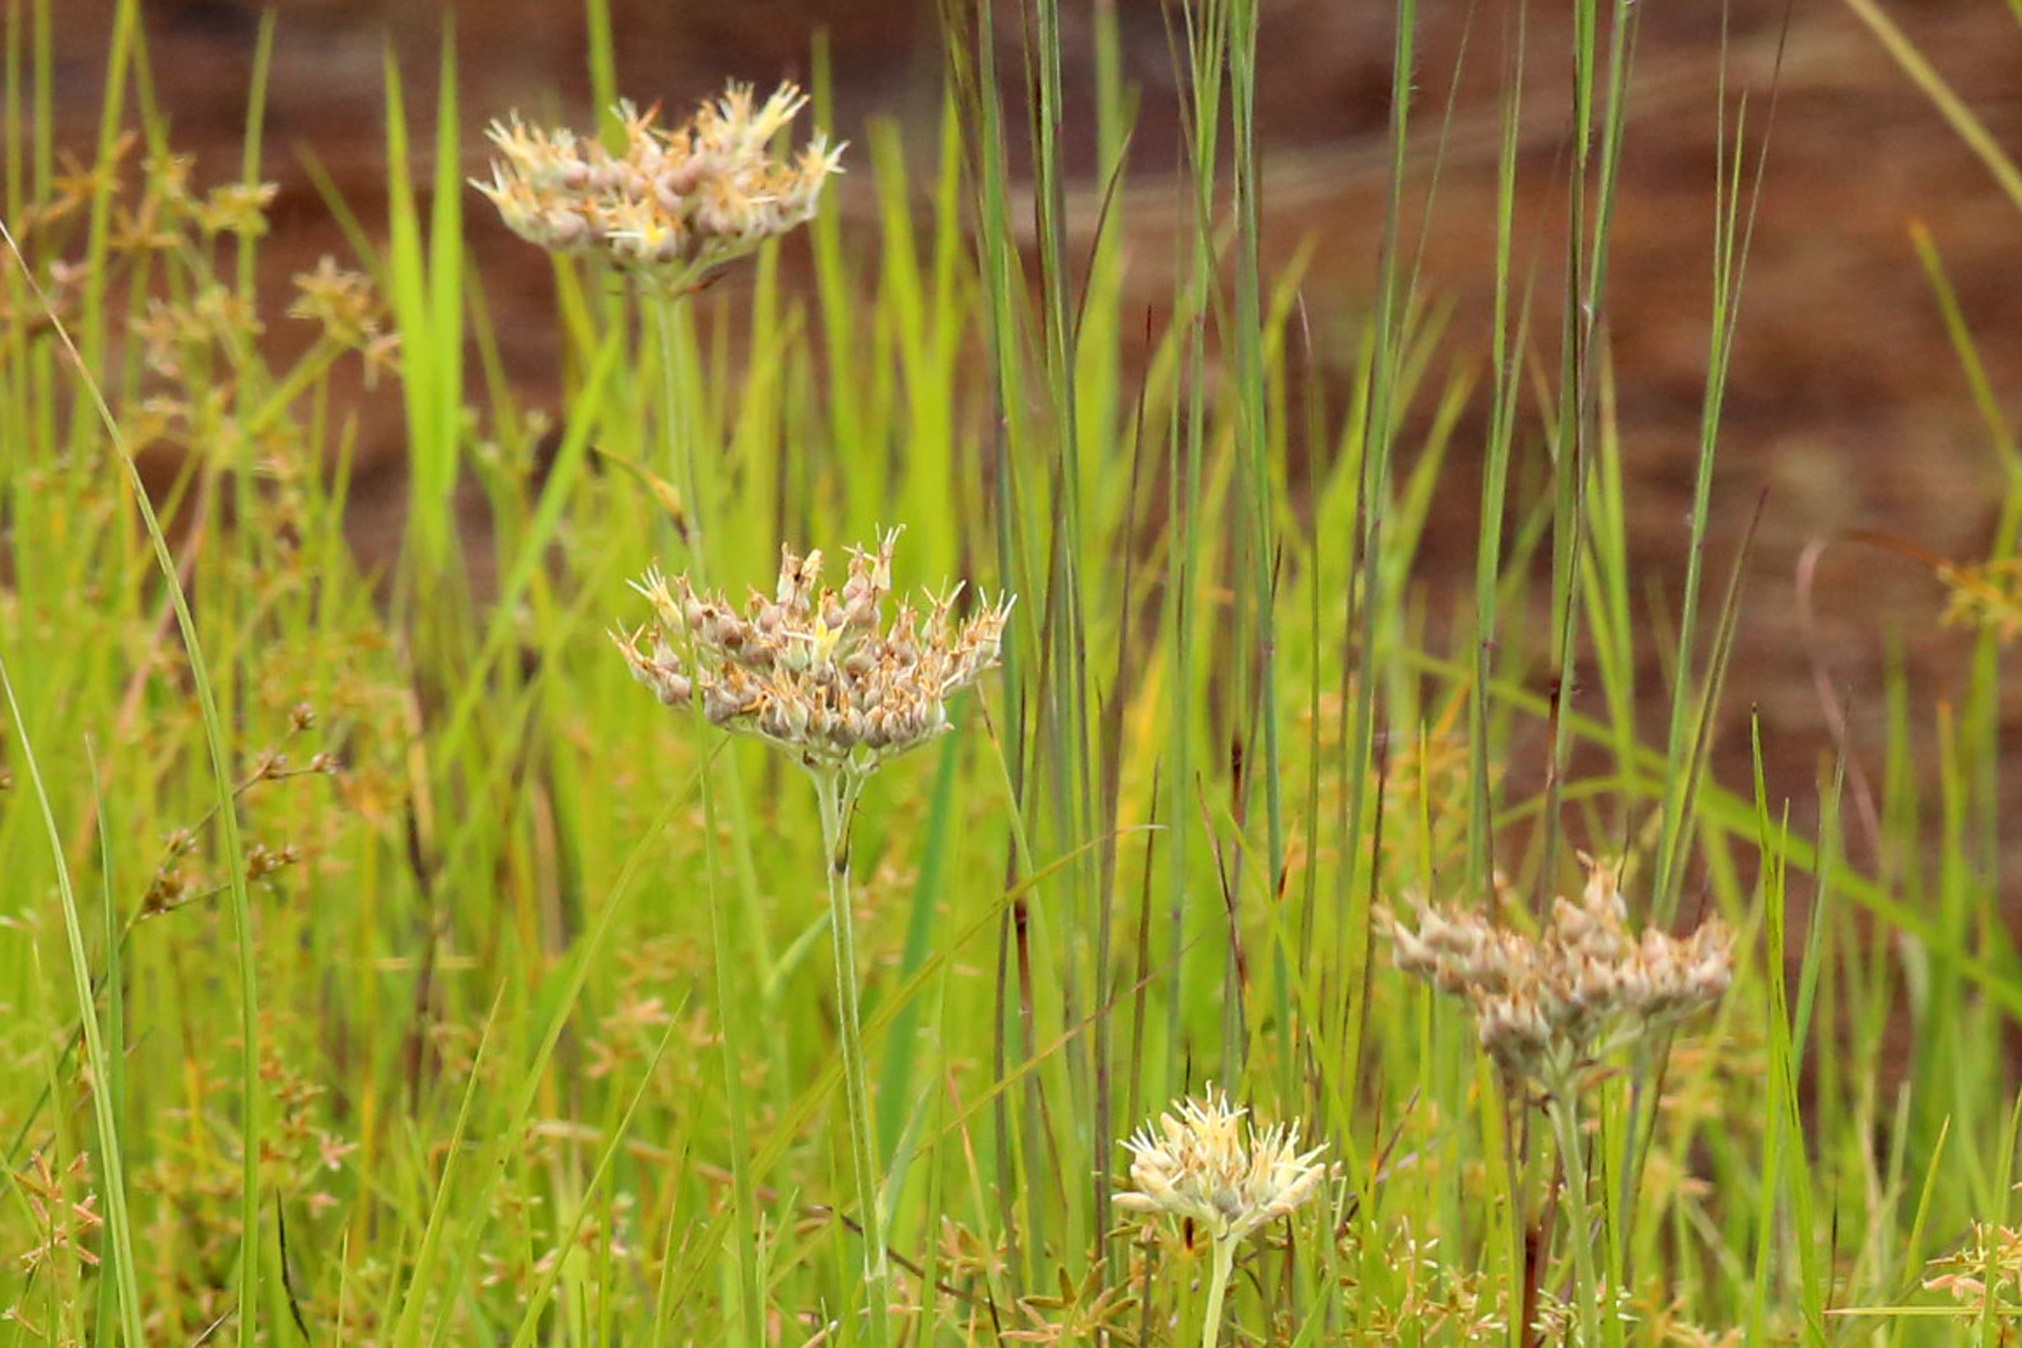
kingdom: Plantae
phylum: Tracheophyta
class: Liliopsida
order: Commelinales
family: Haemodoraceae
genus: Lachnanthes
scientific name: Lachnanthes caroliana
